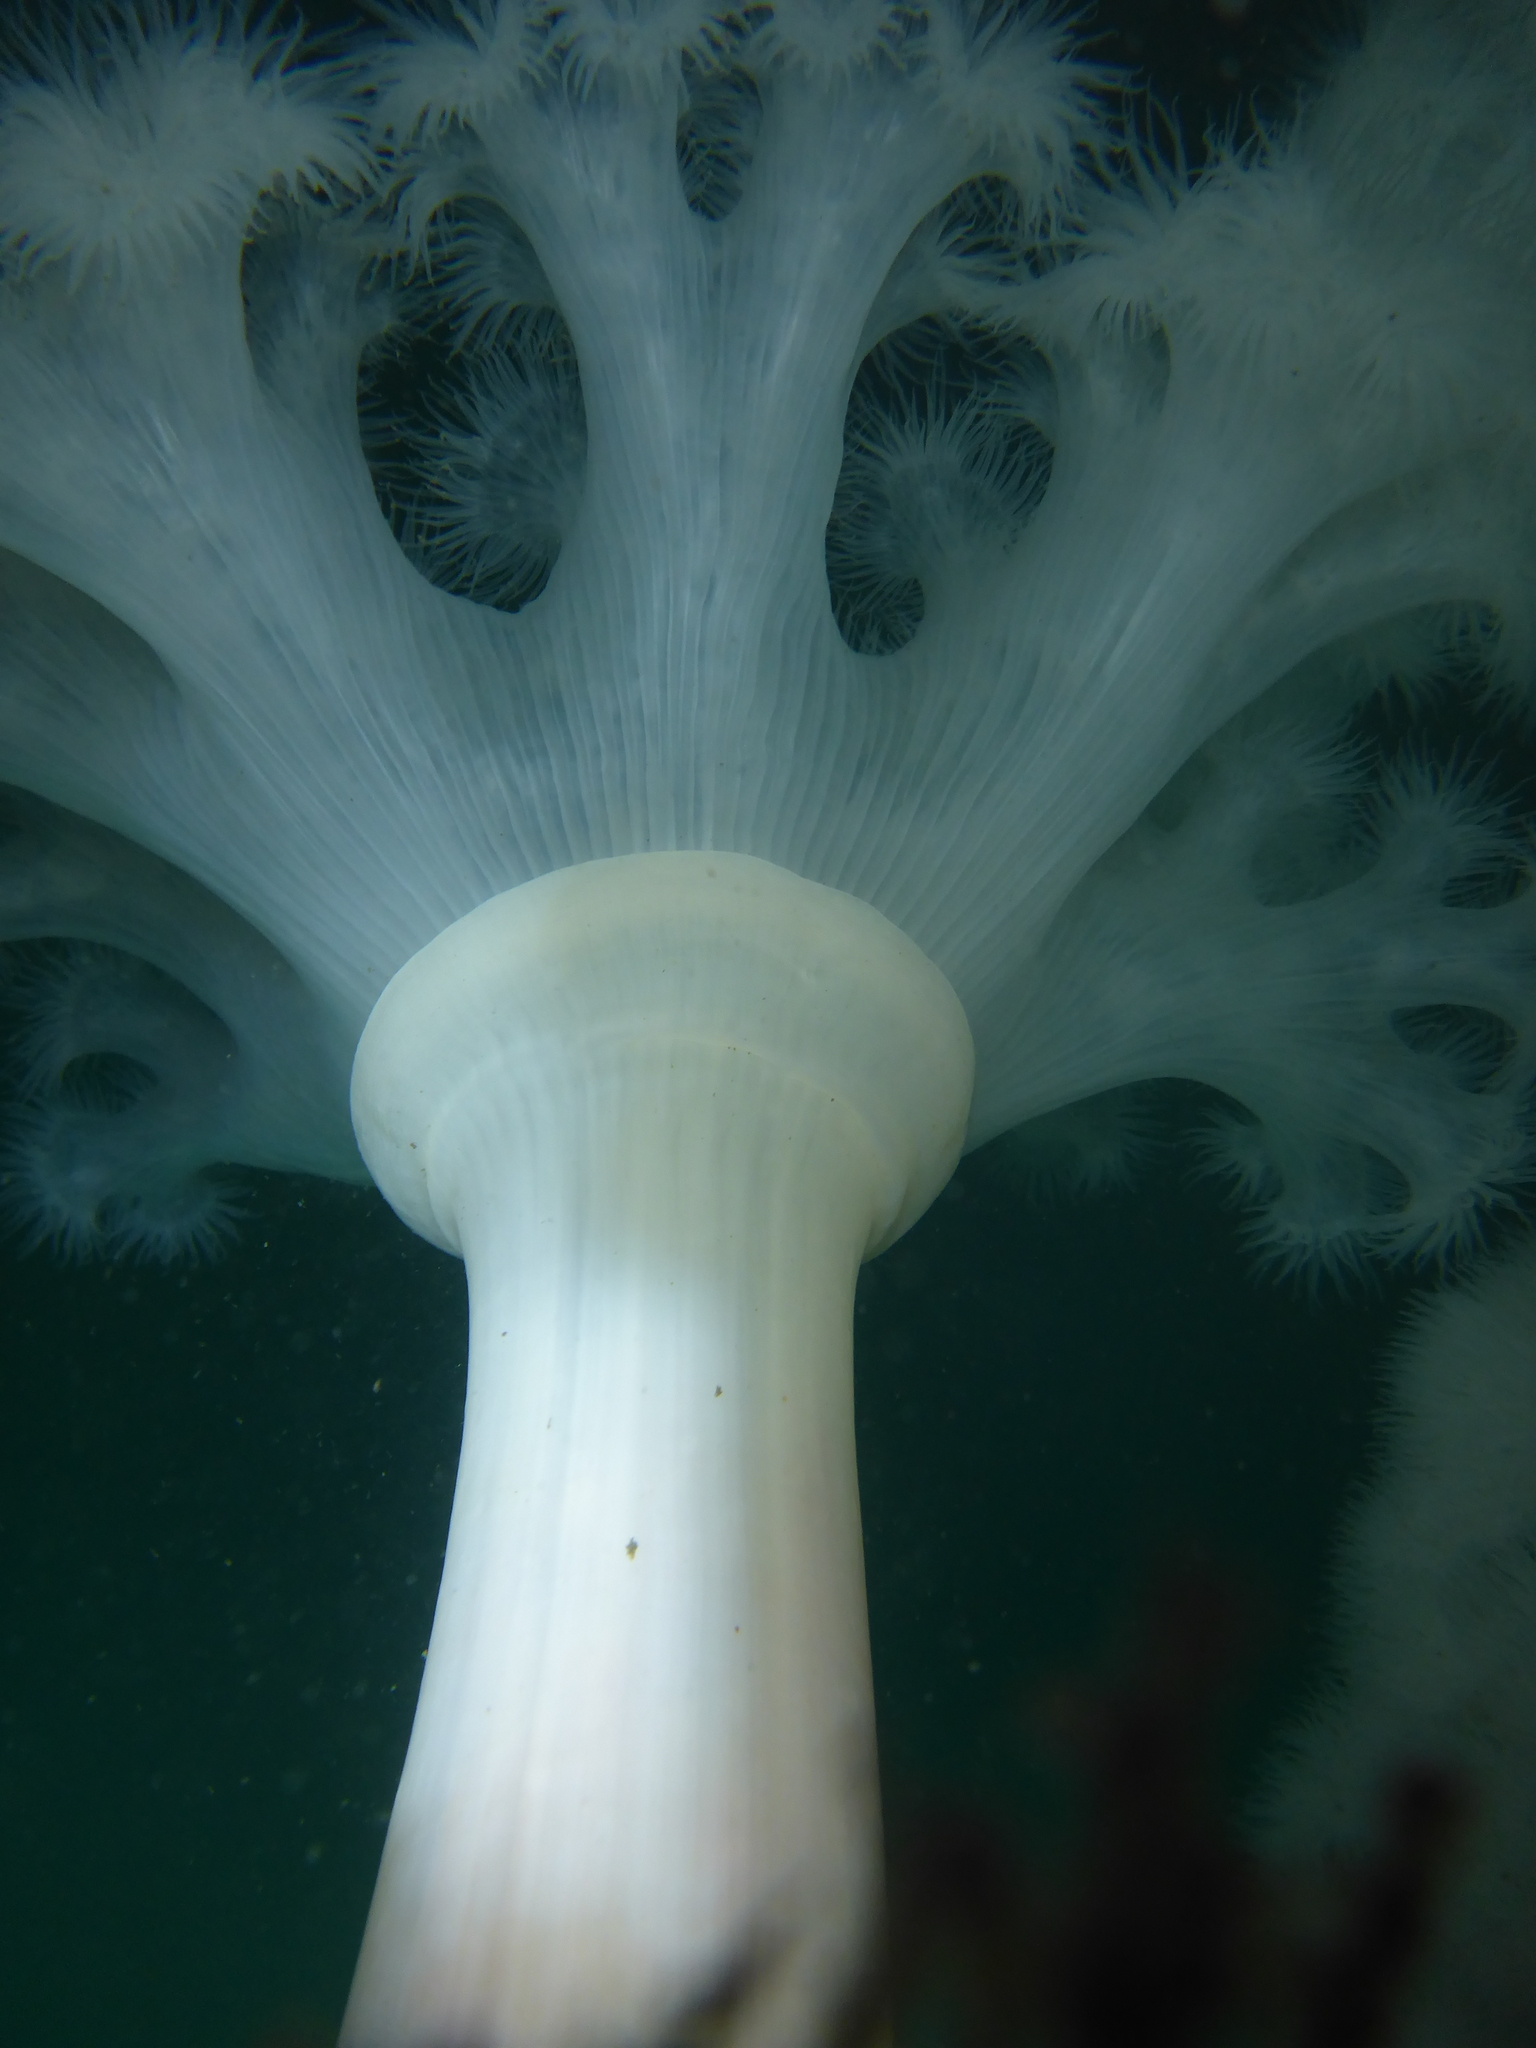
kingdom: Animalia
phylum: Cnidaria
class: Anthozoa
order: Actiniaria
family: Metridiidae
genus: Metridium
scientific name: Metridium farcimen
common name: Gigantic anemone
